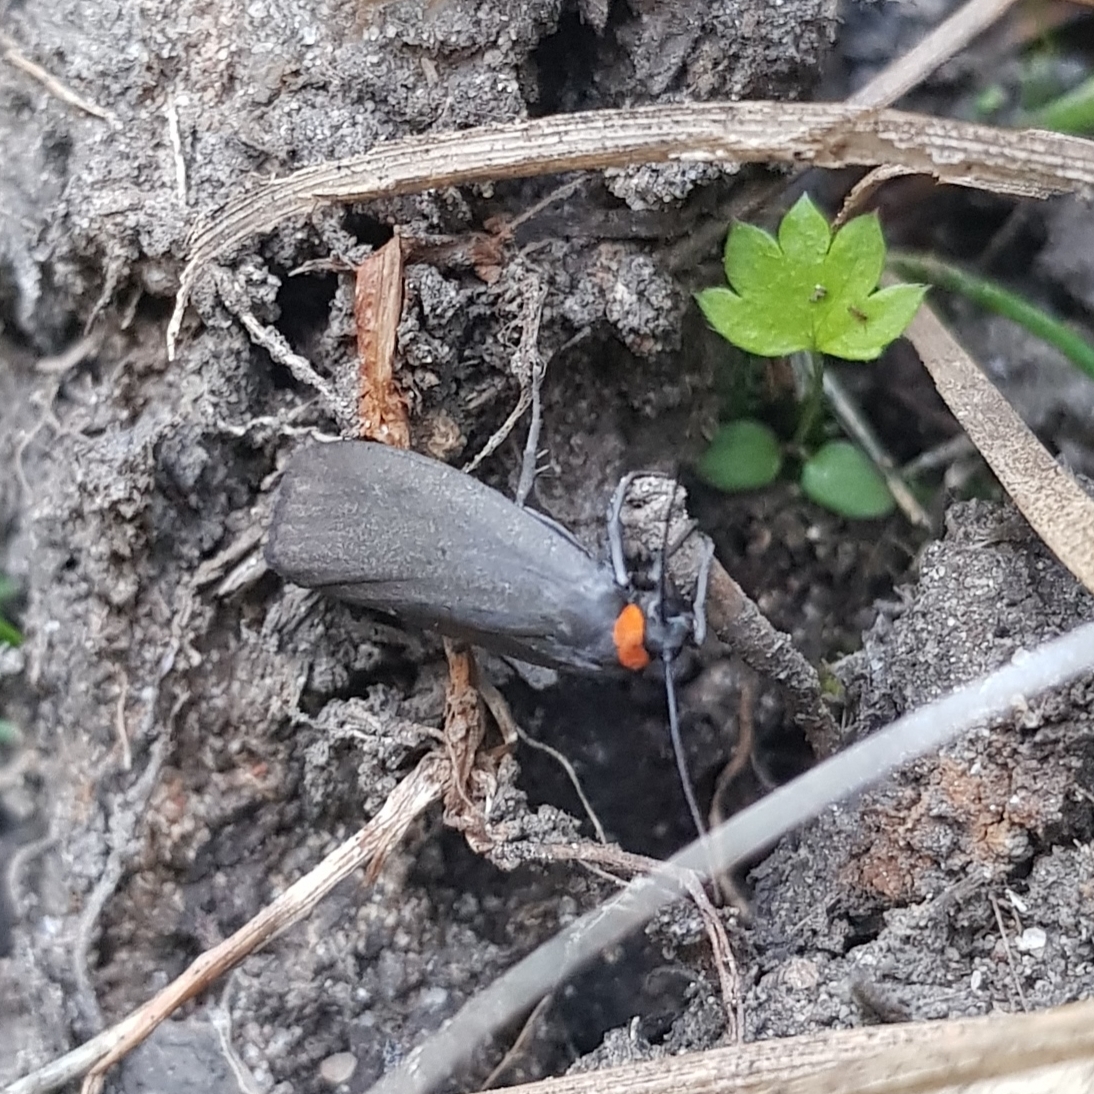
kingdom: Animalia
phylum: Arthropoda
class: Insecta
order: Lepidoptera
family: Erebidae
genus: Atolmis
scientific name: Atolmis rubricollis
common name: Red-necked footman
